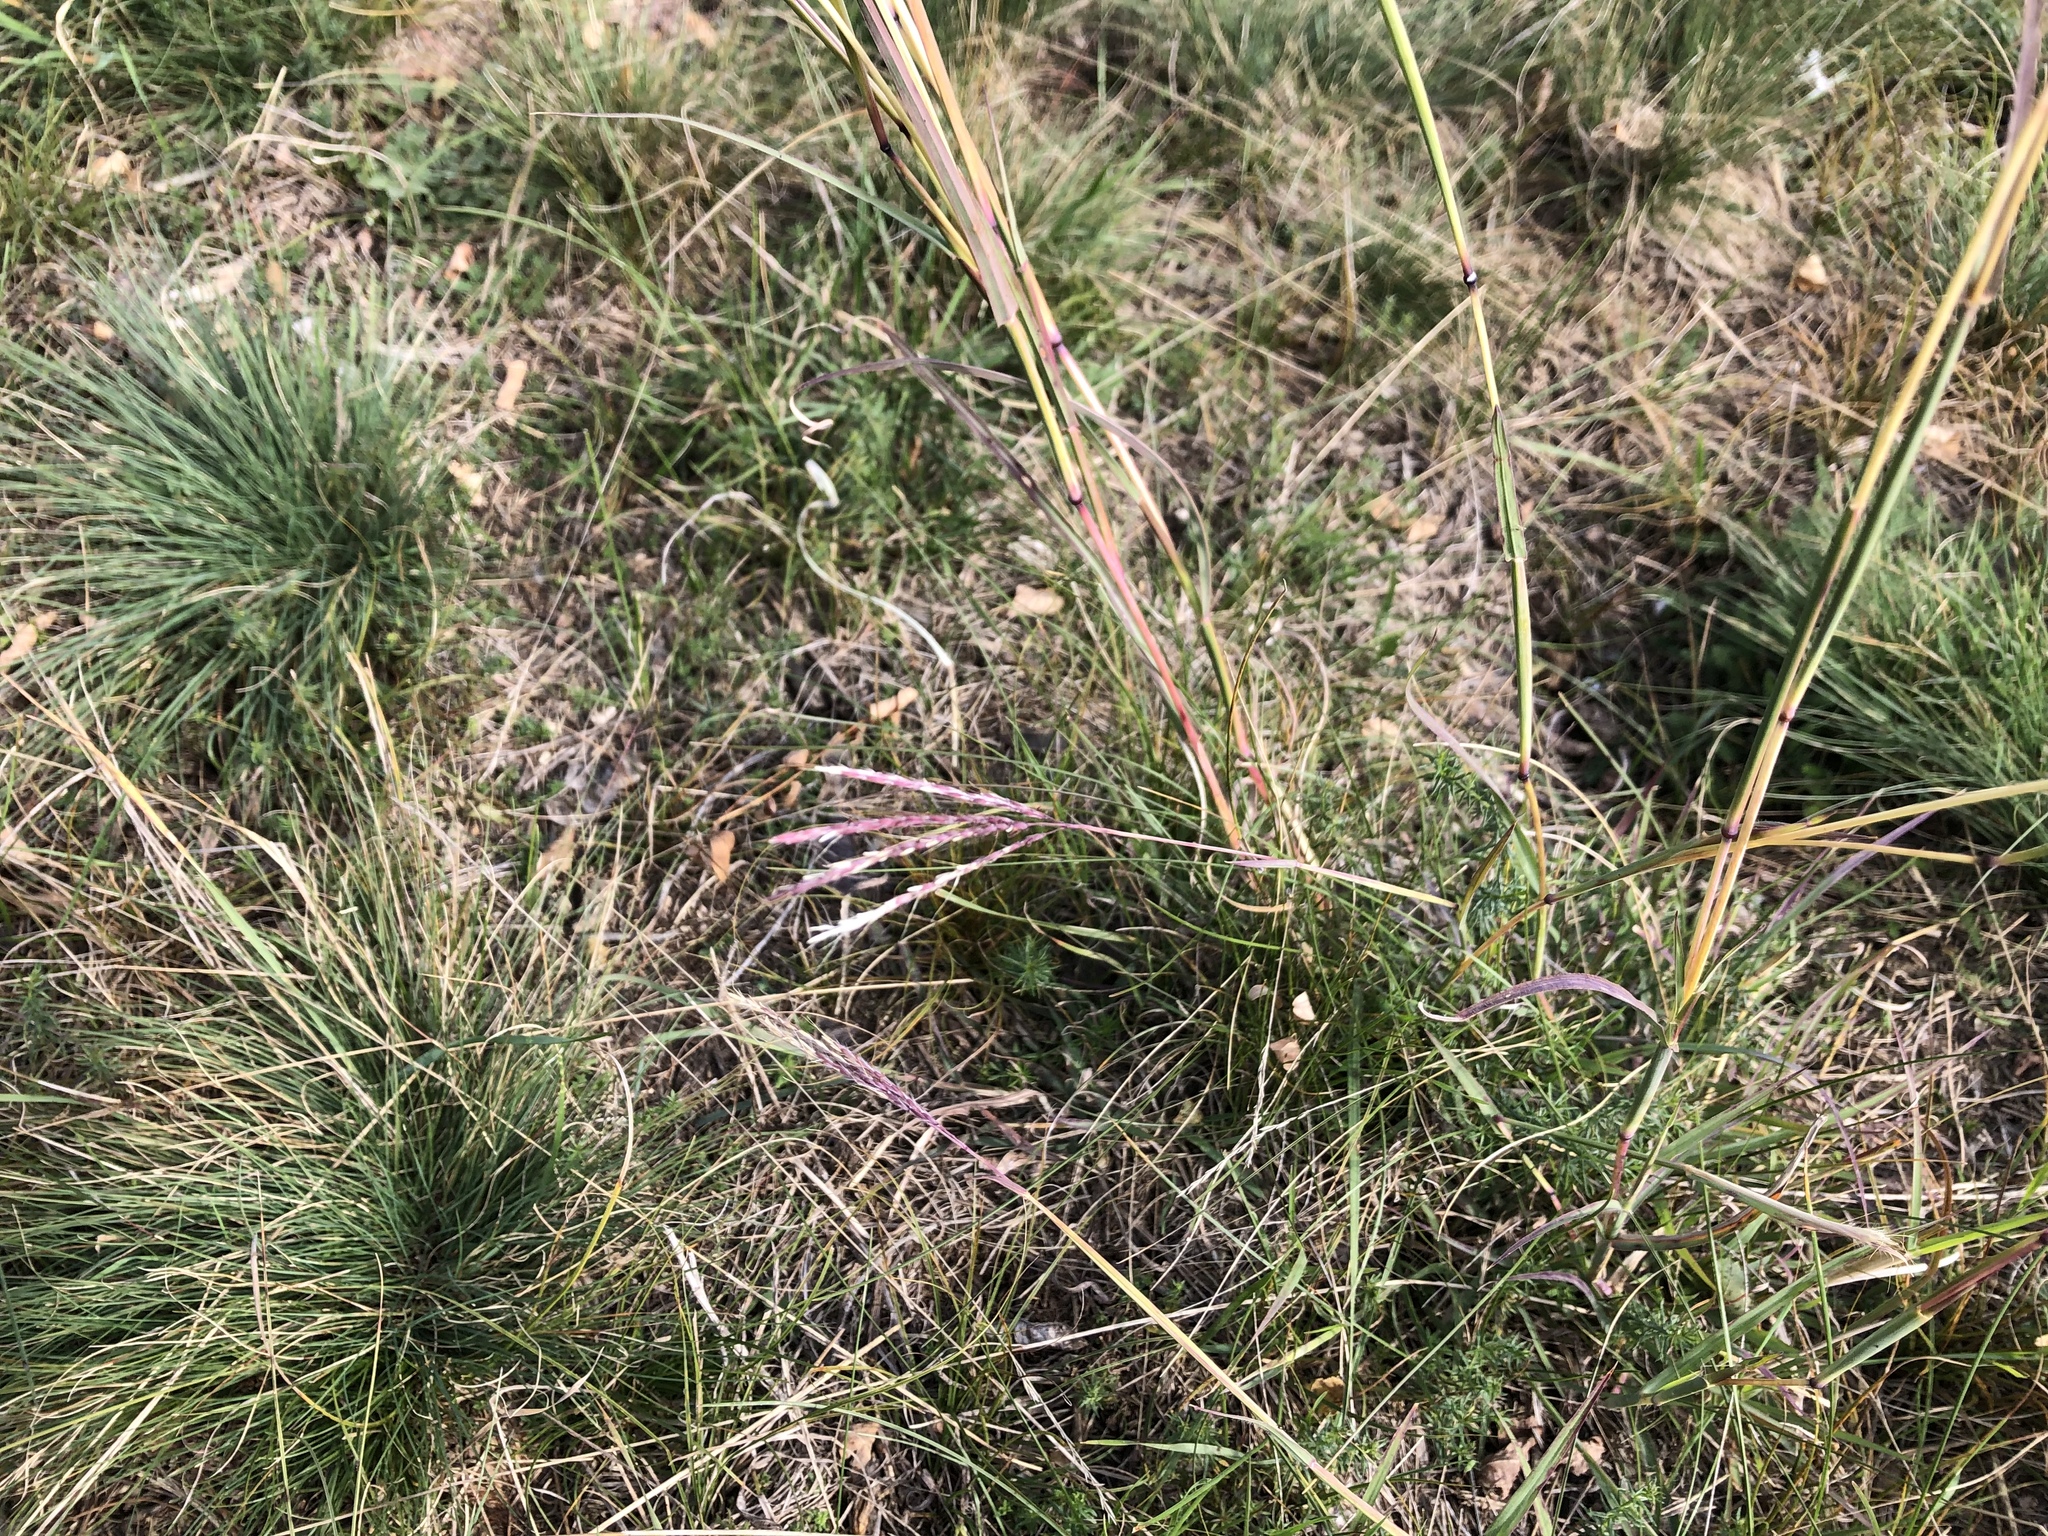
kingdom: Plantae
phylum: Tracheophyta
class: Liliopsida
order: Poales
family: Poaceae
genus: Bothriochloa
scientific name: Bothriochloa ischaemum
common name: Yellow bluestem
